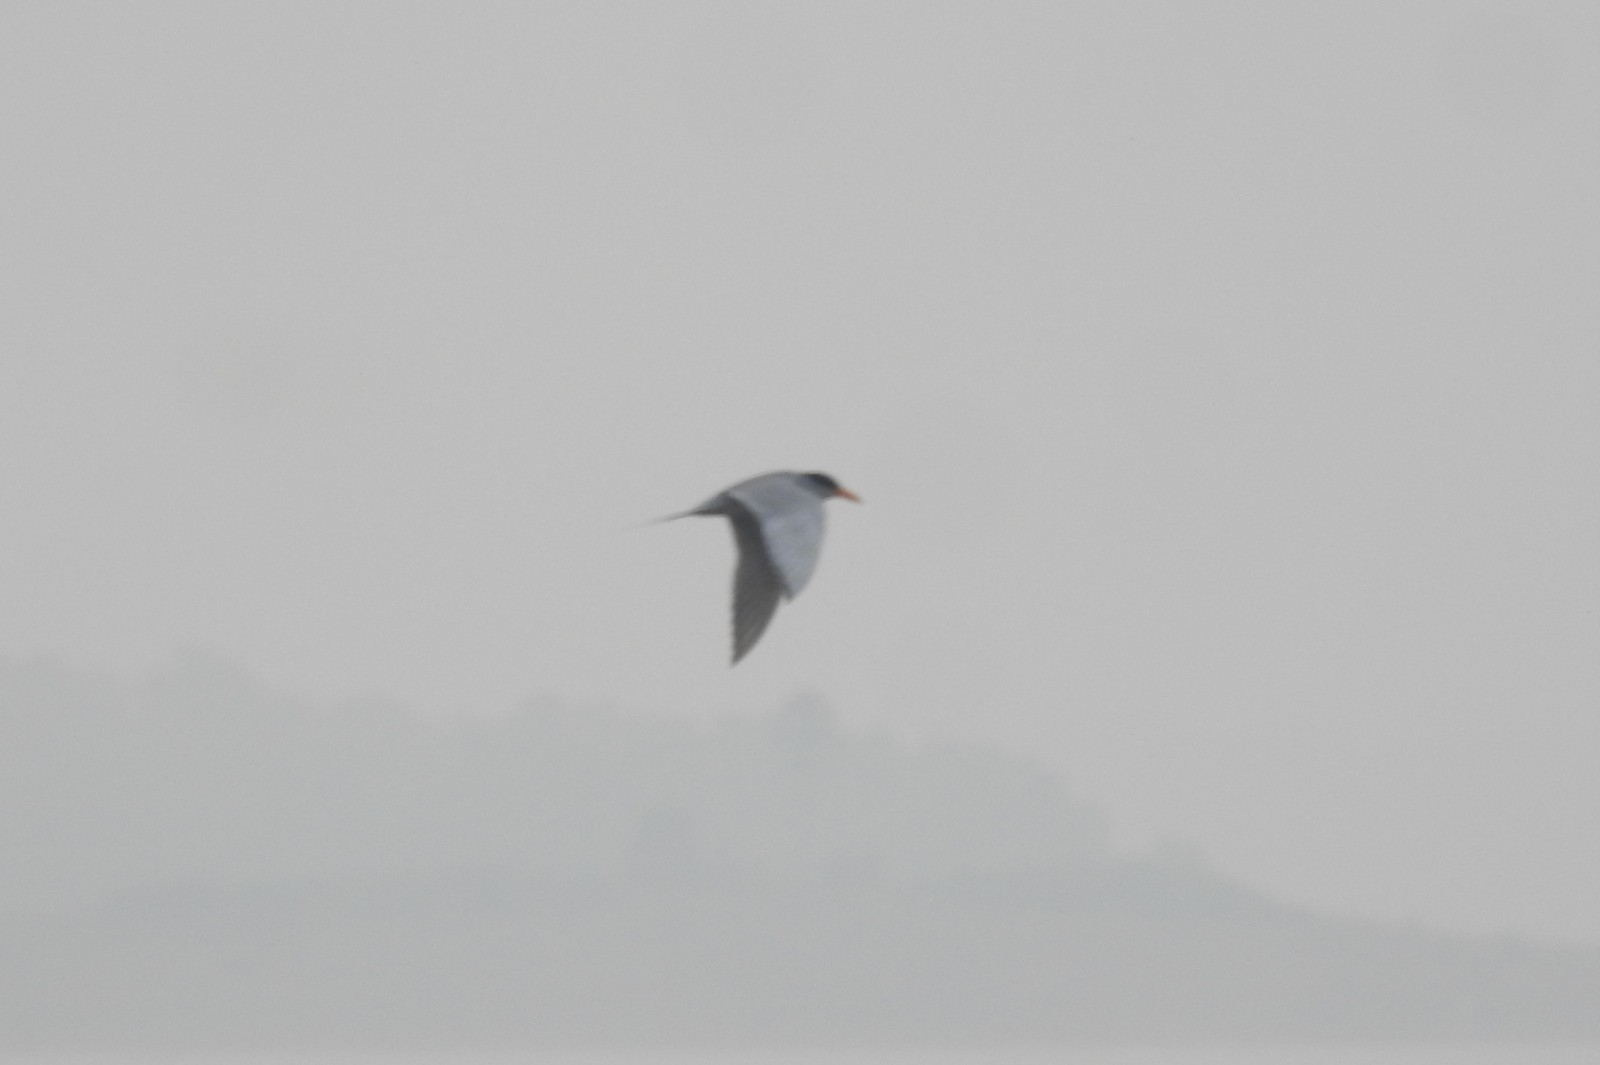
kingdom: Animalia
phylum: Chordata
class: Aves
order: Charadriiformes
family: Laridae
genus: Sterna
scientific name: Sterna aurantia
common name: River tern
